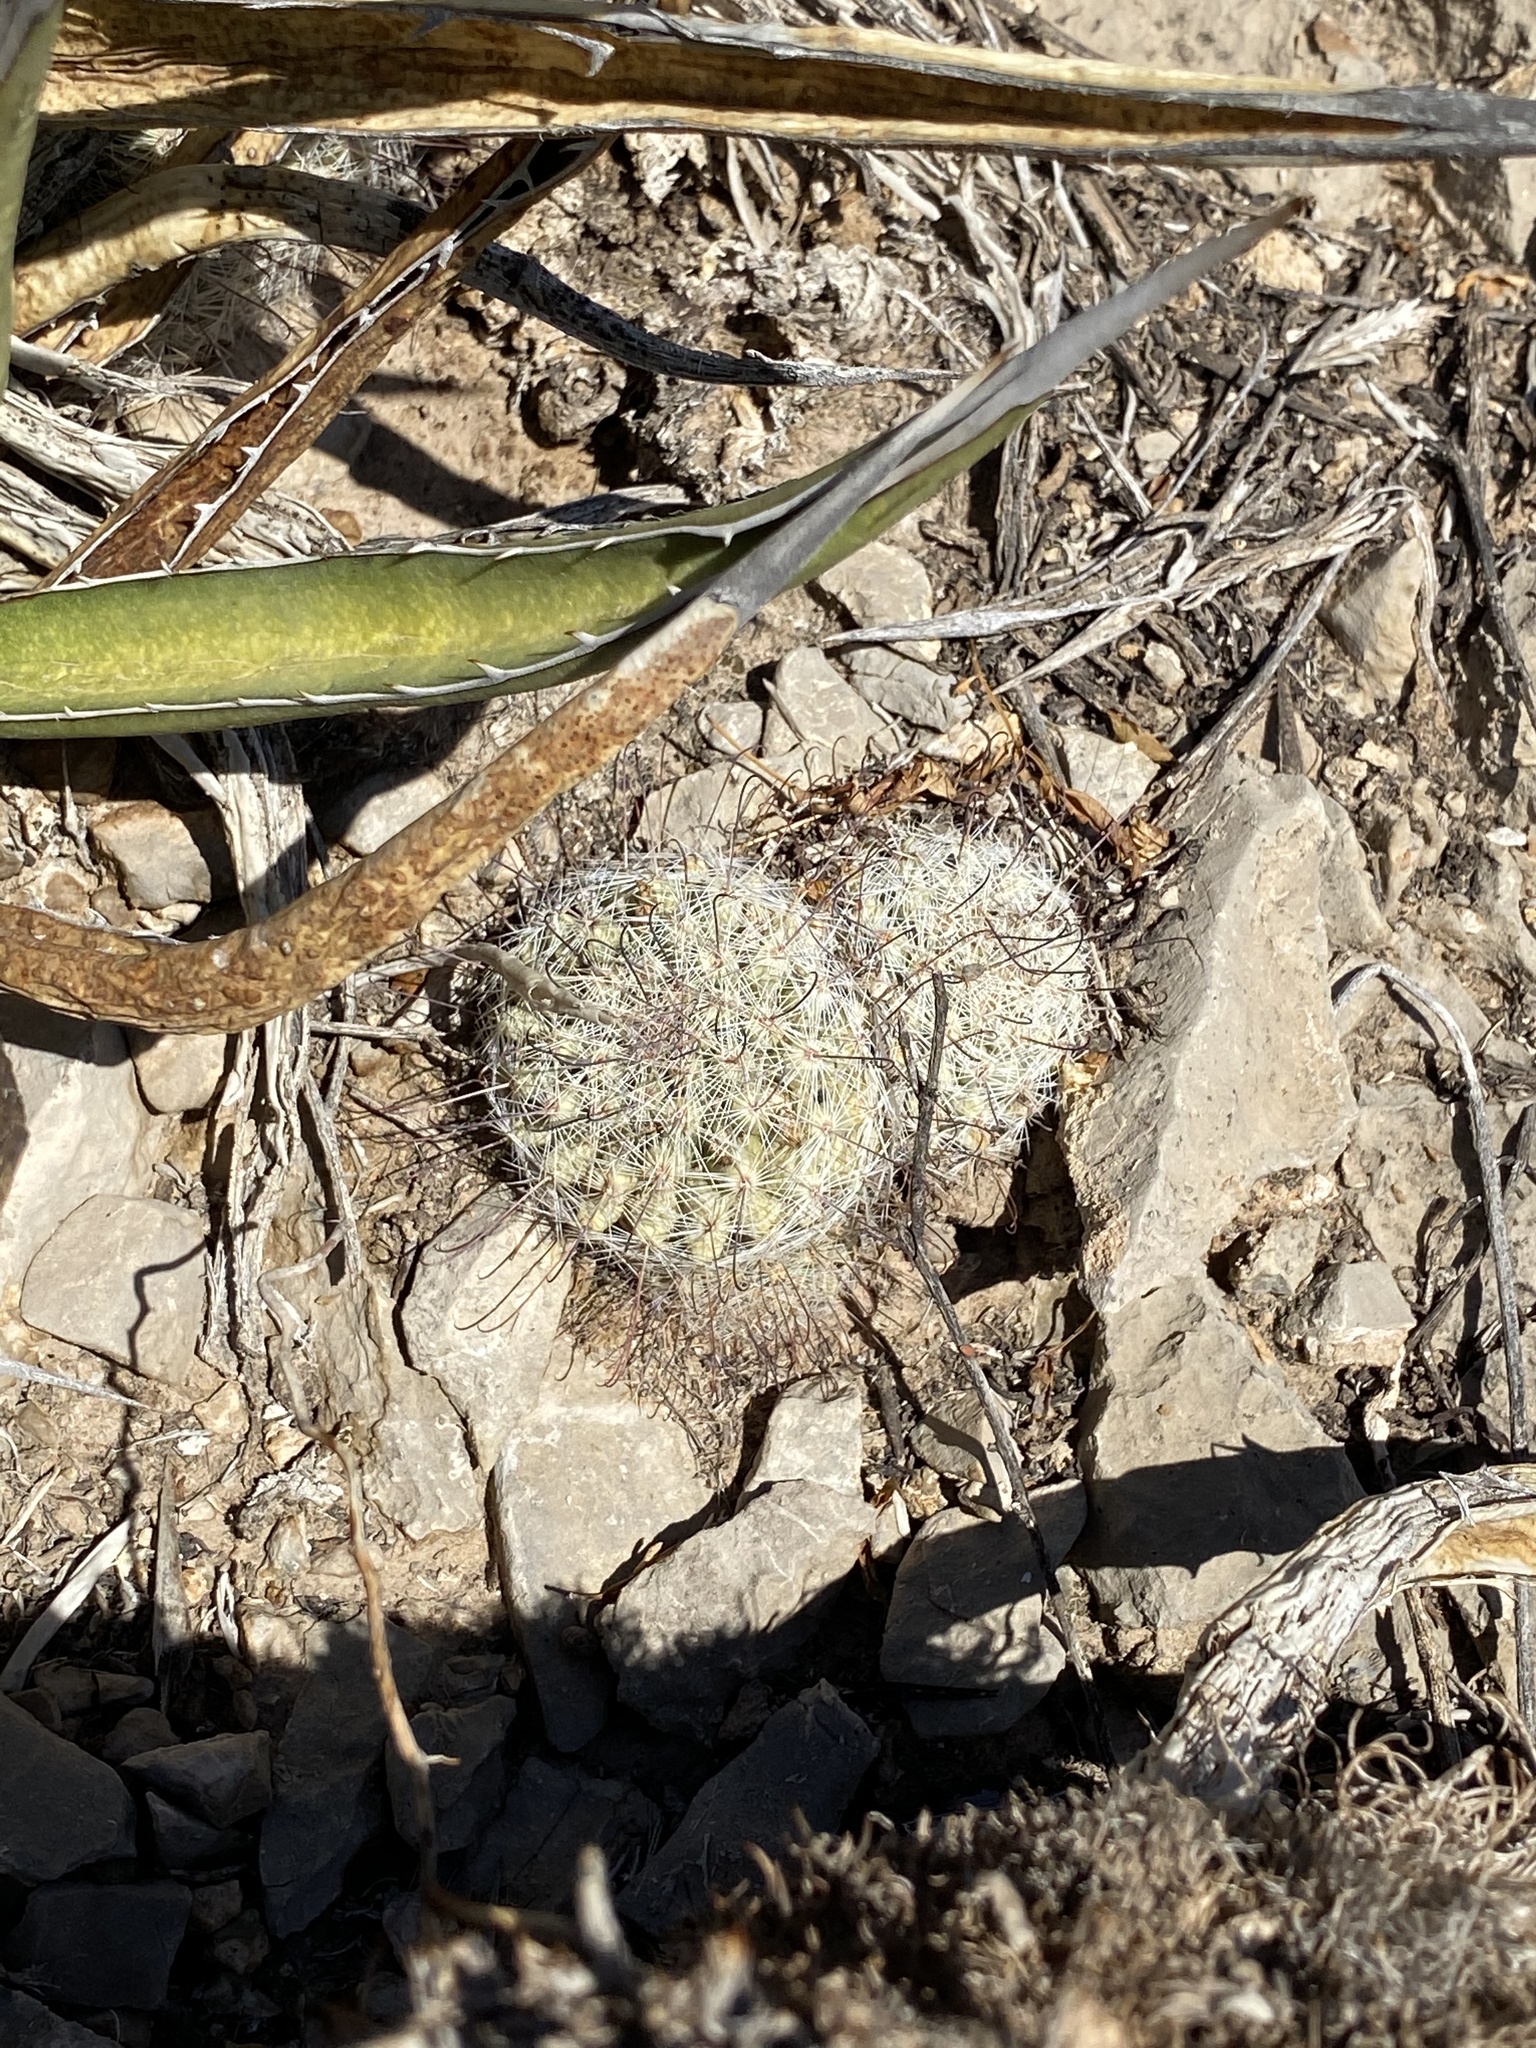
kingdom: Plantae
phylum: Tracheophyta
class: Magnoliopsida
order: Caryophyllales
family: Cactaceae
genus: Cochemiea
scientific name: Cochemiea grahamii
